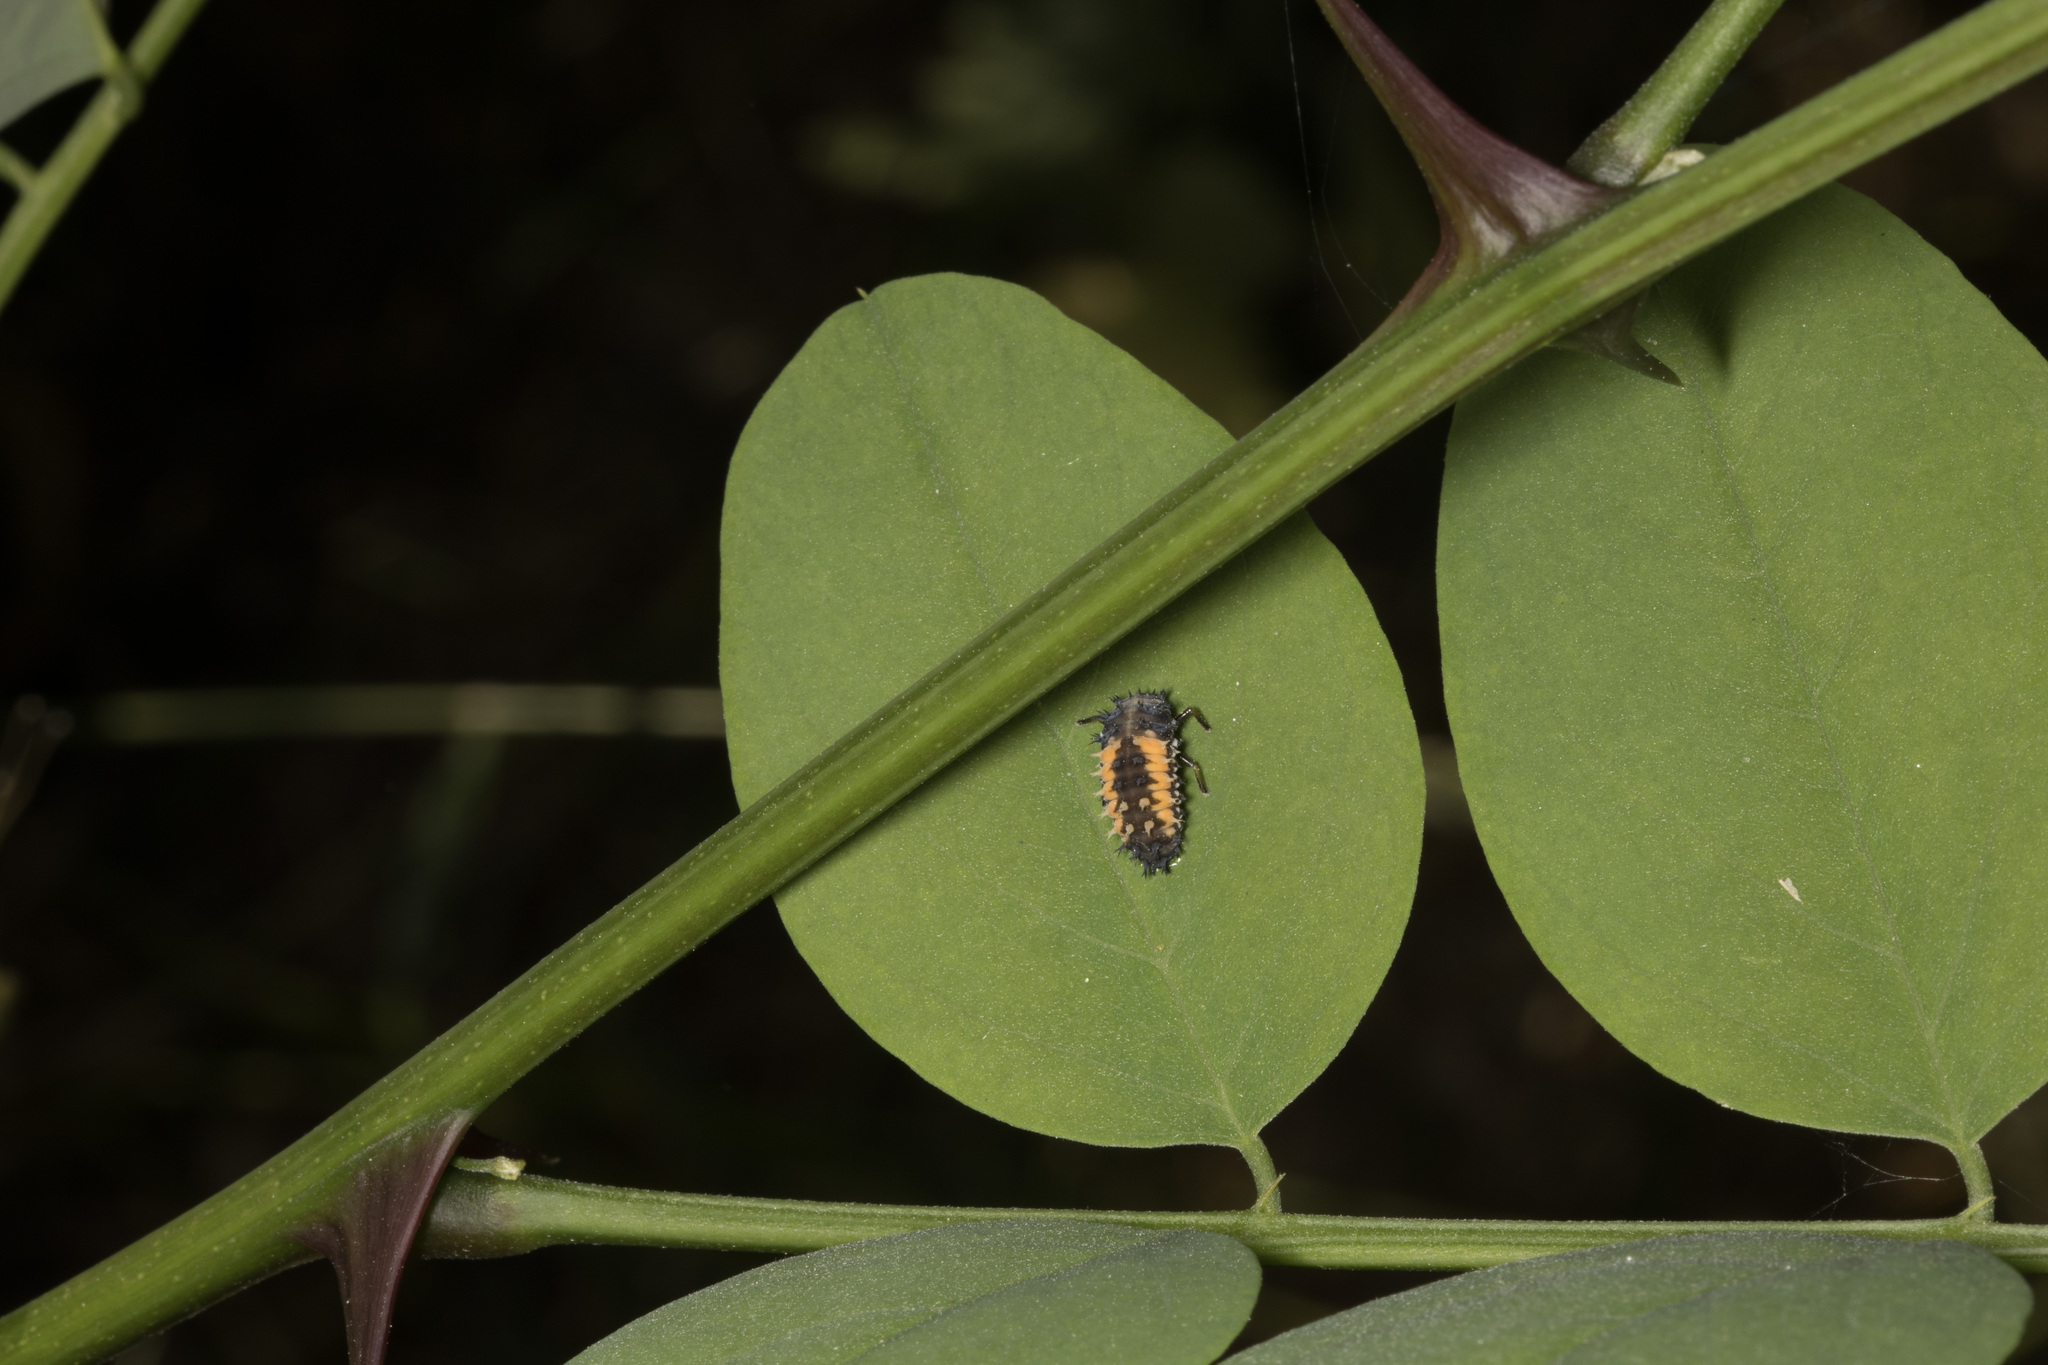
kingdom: Animalia
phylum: Arthropoda
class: Insecta
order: Coleoptera
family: Coccinellidae
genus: Harmonia
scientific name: Harmonia axyridis
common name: Harlequin ladybird
